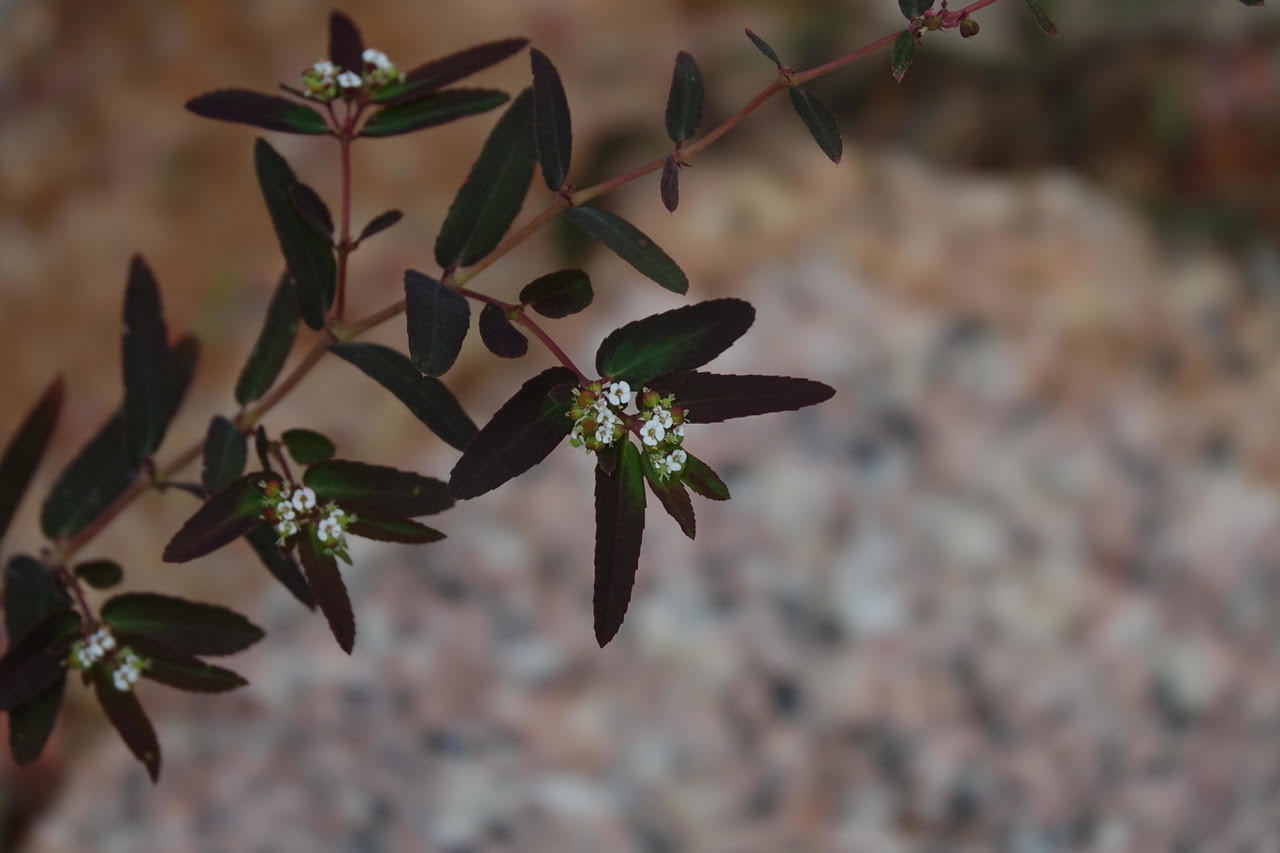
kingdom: Plantae
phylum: Tracheophyta
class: Magnoliopsida
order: Malpighiales
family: Euphorbiaceae
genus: Euphorbia
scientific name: Euphorbia hypericifolia
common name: Graceful sandmat
